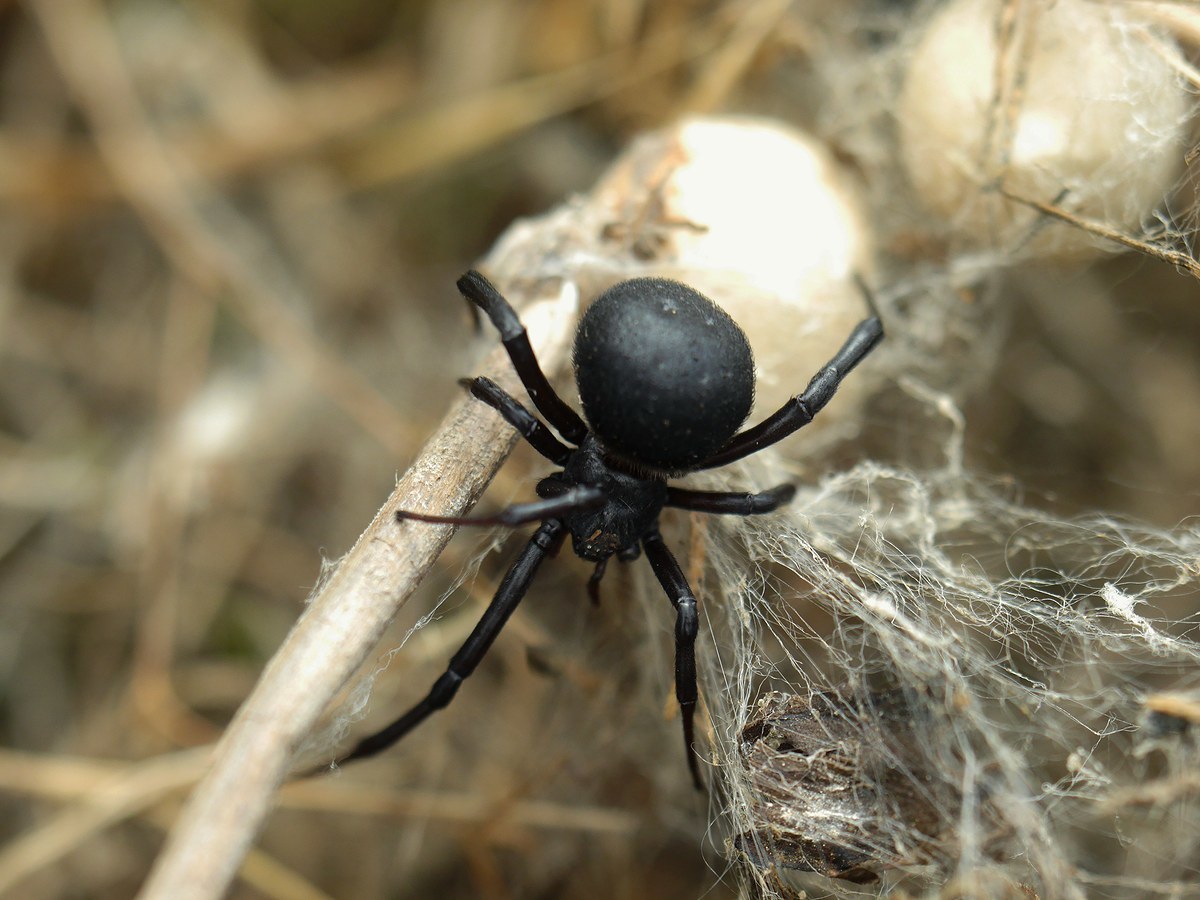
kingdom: Animalia
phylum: Arthropoda
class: Arachnida
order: Araneae
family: Theridiidae
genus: Latrodectus
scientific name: Latrodectus tredecimguttatus
